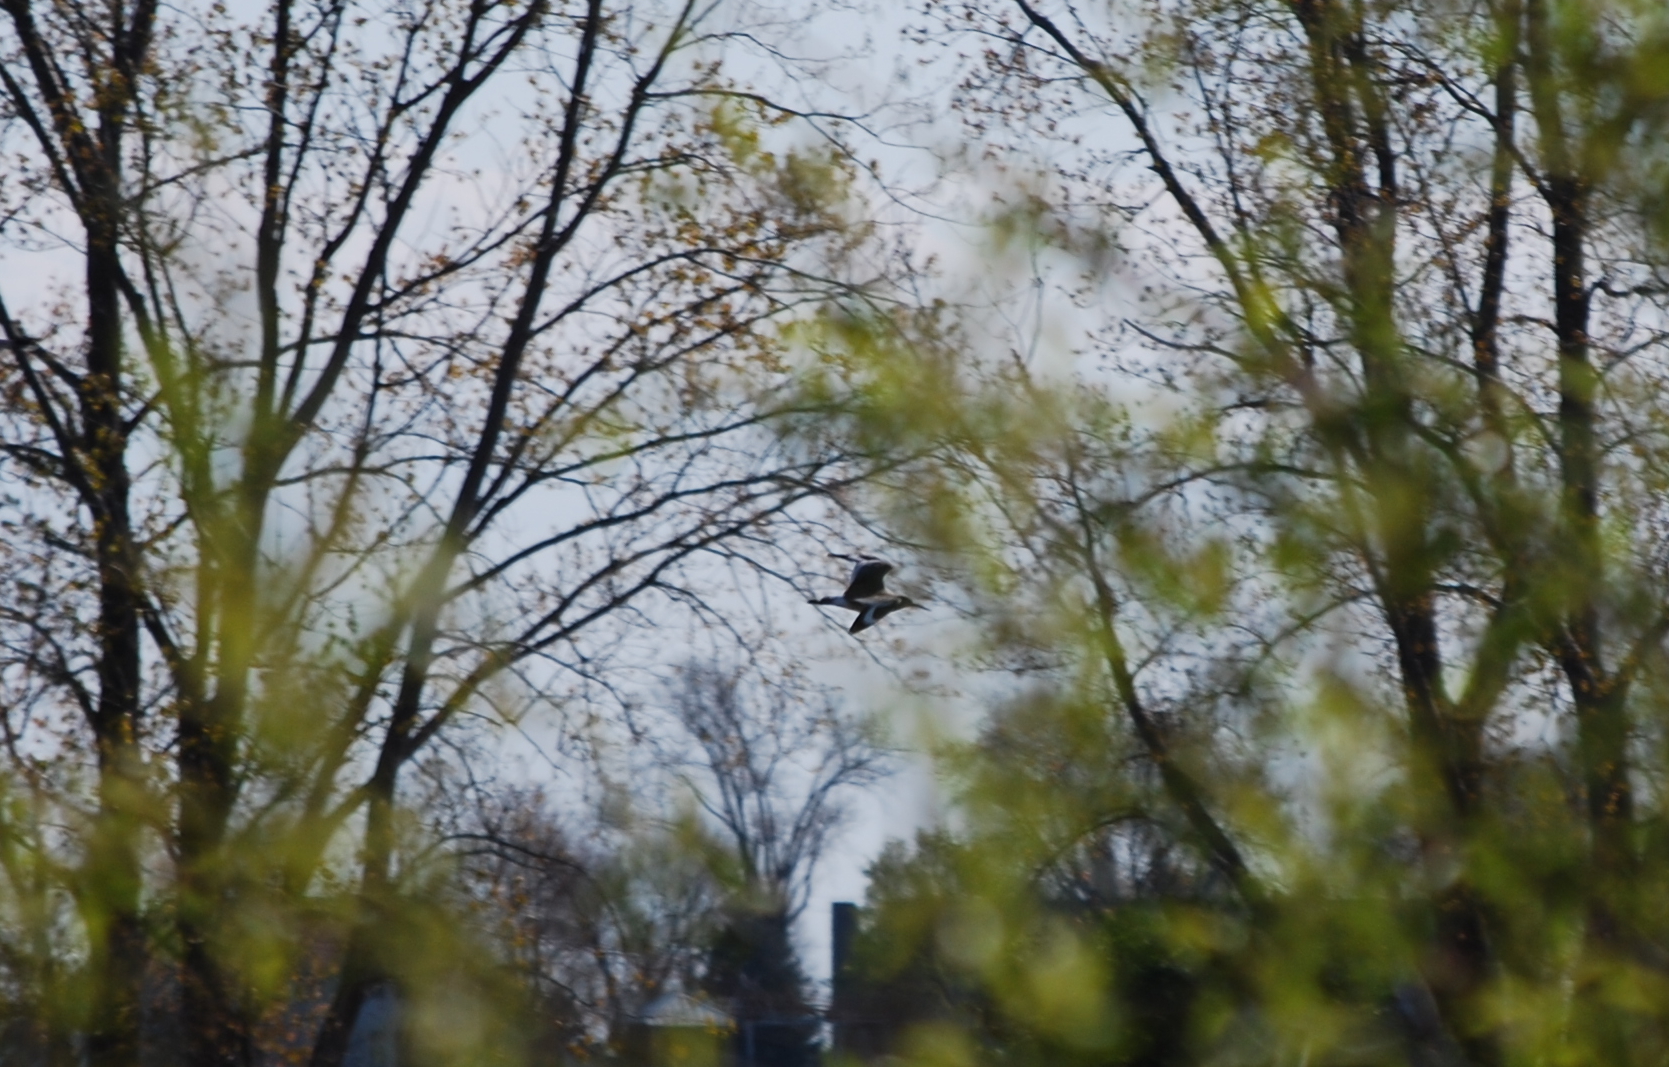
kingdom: Animalia
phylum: Chordata
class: Aves
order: Charadriiformes
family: Scolopacidae
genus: Tringa
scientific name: Tringa semipalmata
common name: Willet
